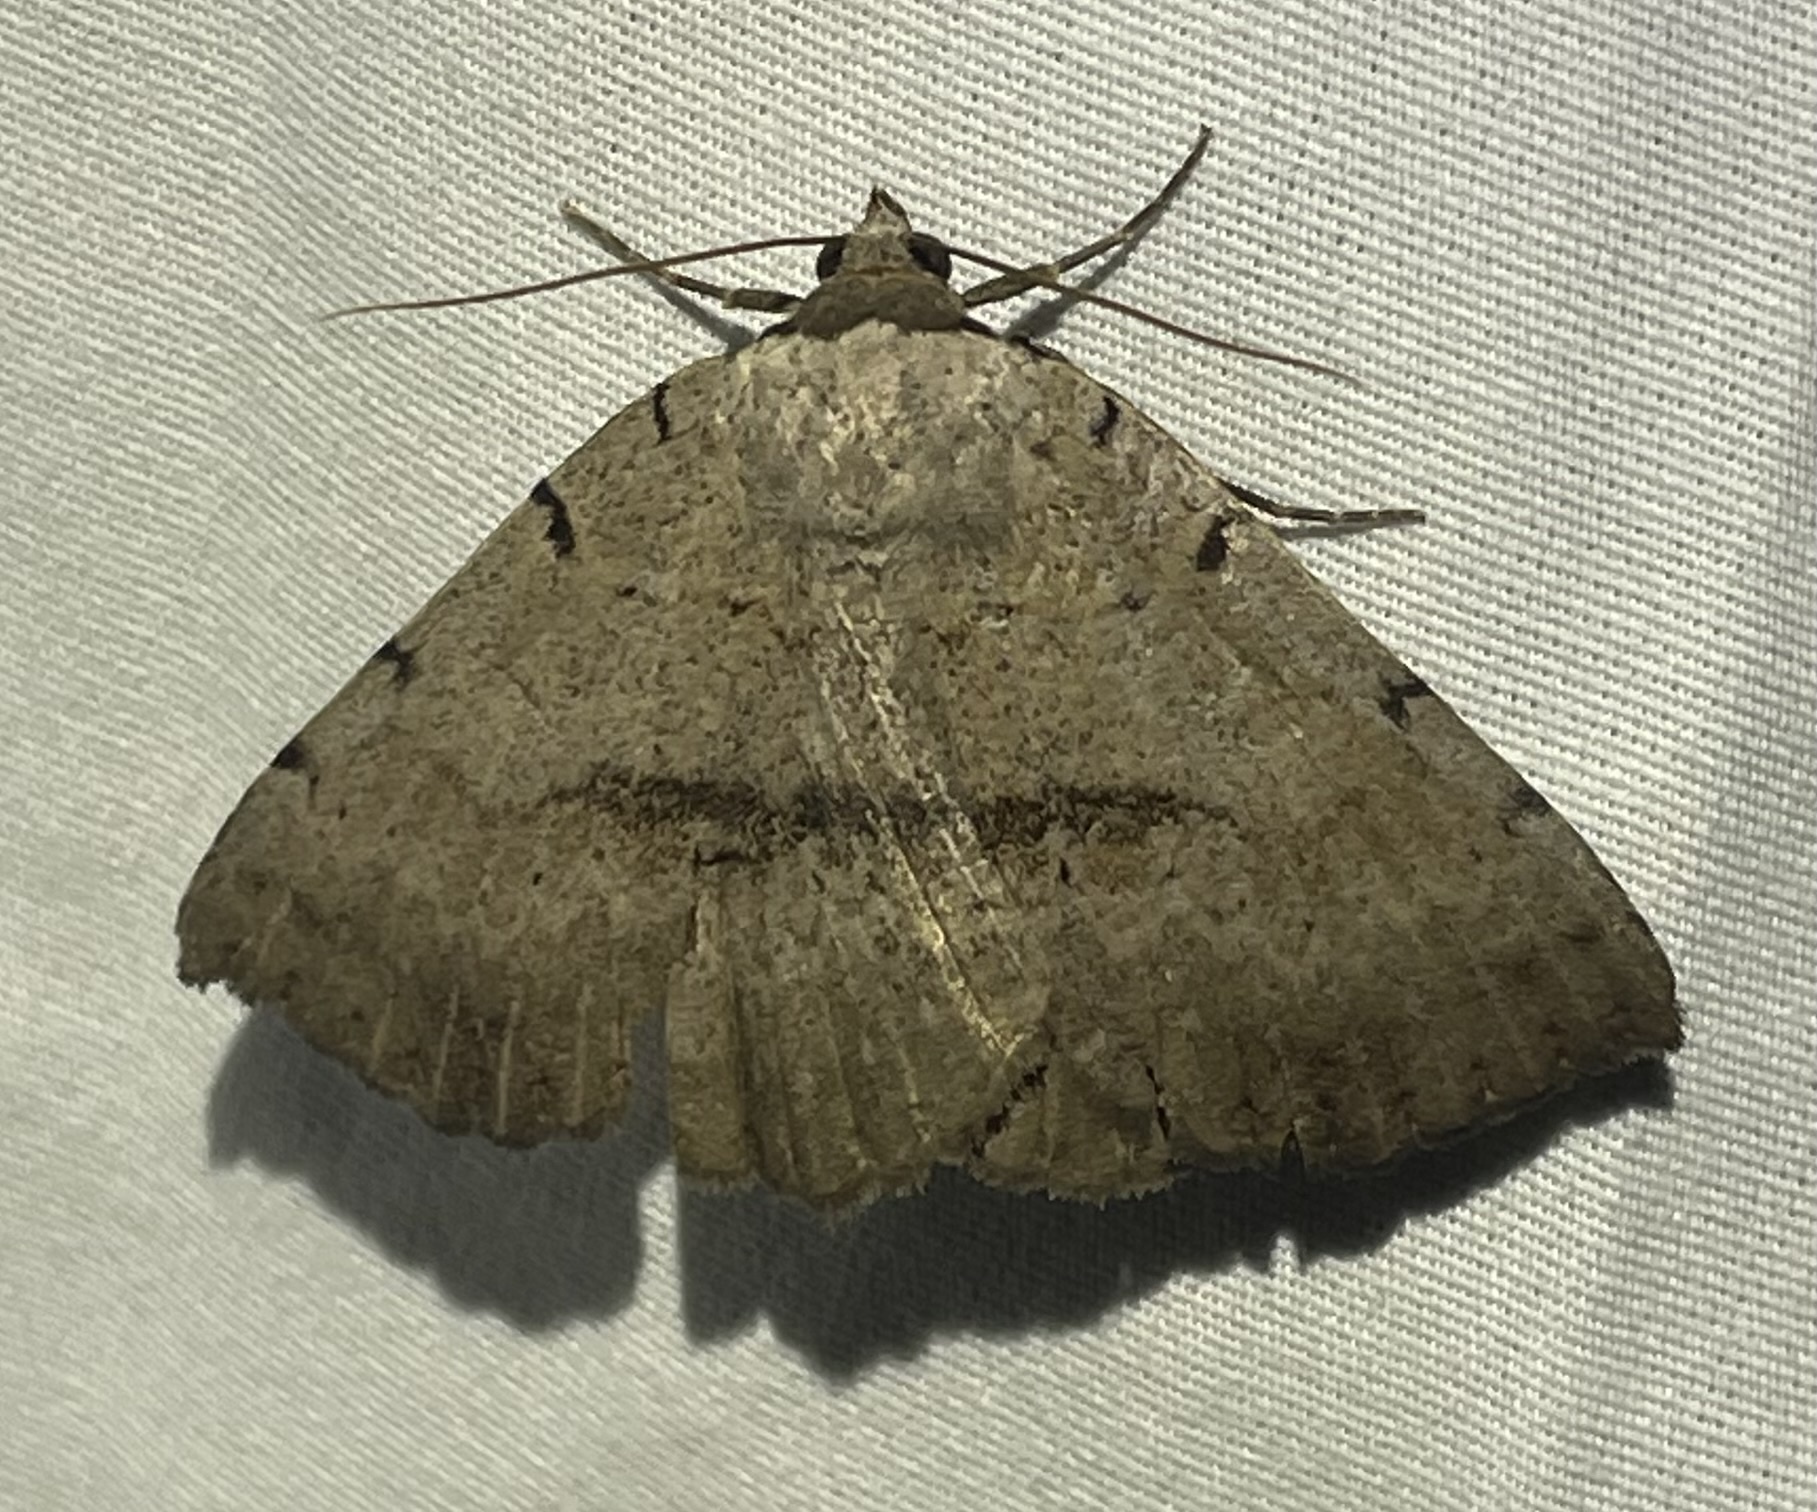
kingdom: Animalia
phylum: Arthropoda
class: Insecta
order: Lepidoptera
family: Erebidae
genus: Spiloloma
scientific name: Spiloloma lunilinea
